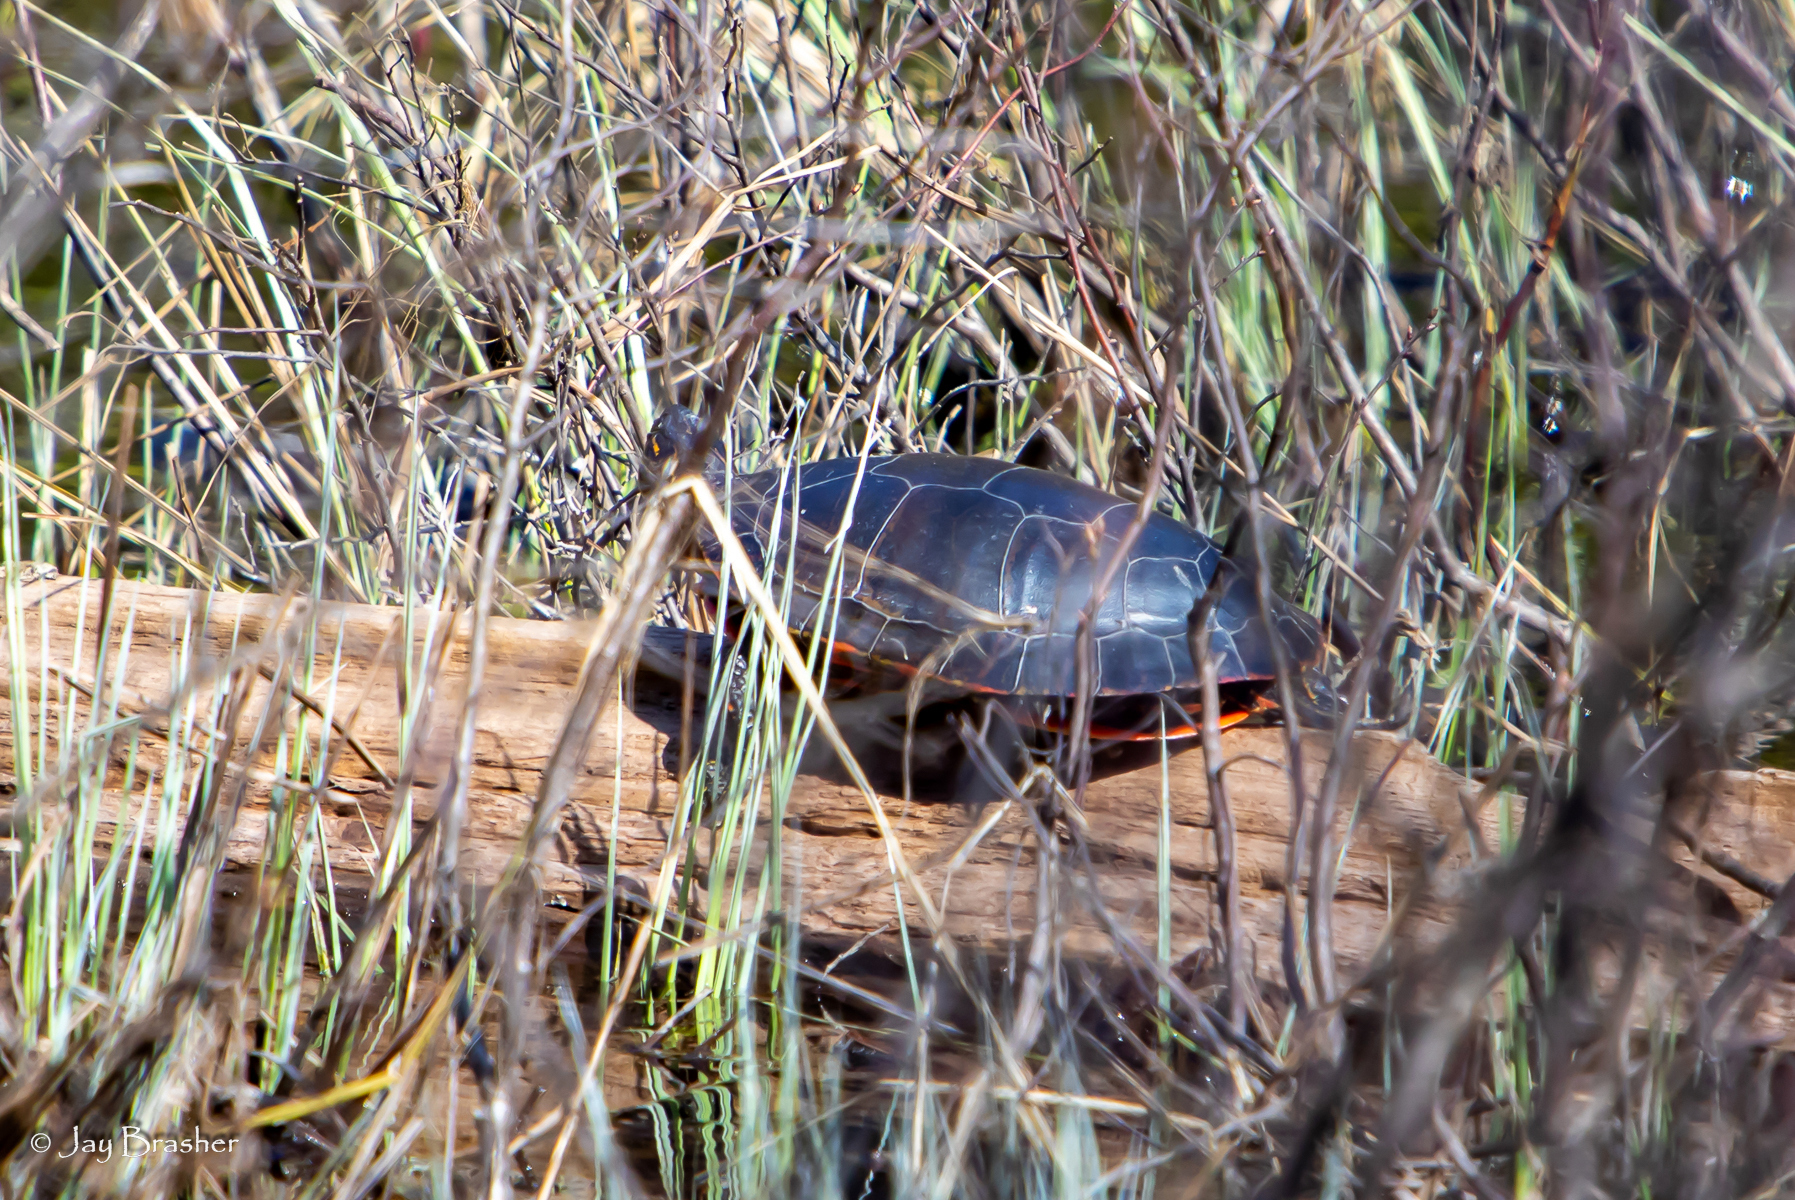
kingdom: Animalia
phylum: Chordata
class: Testudines
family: Emydidae
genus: Chrysemys
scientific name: Chrysemys picta
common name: Painted turtle
